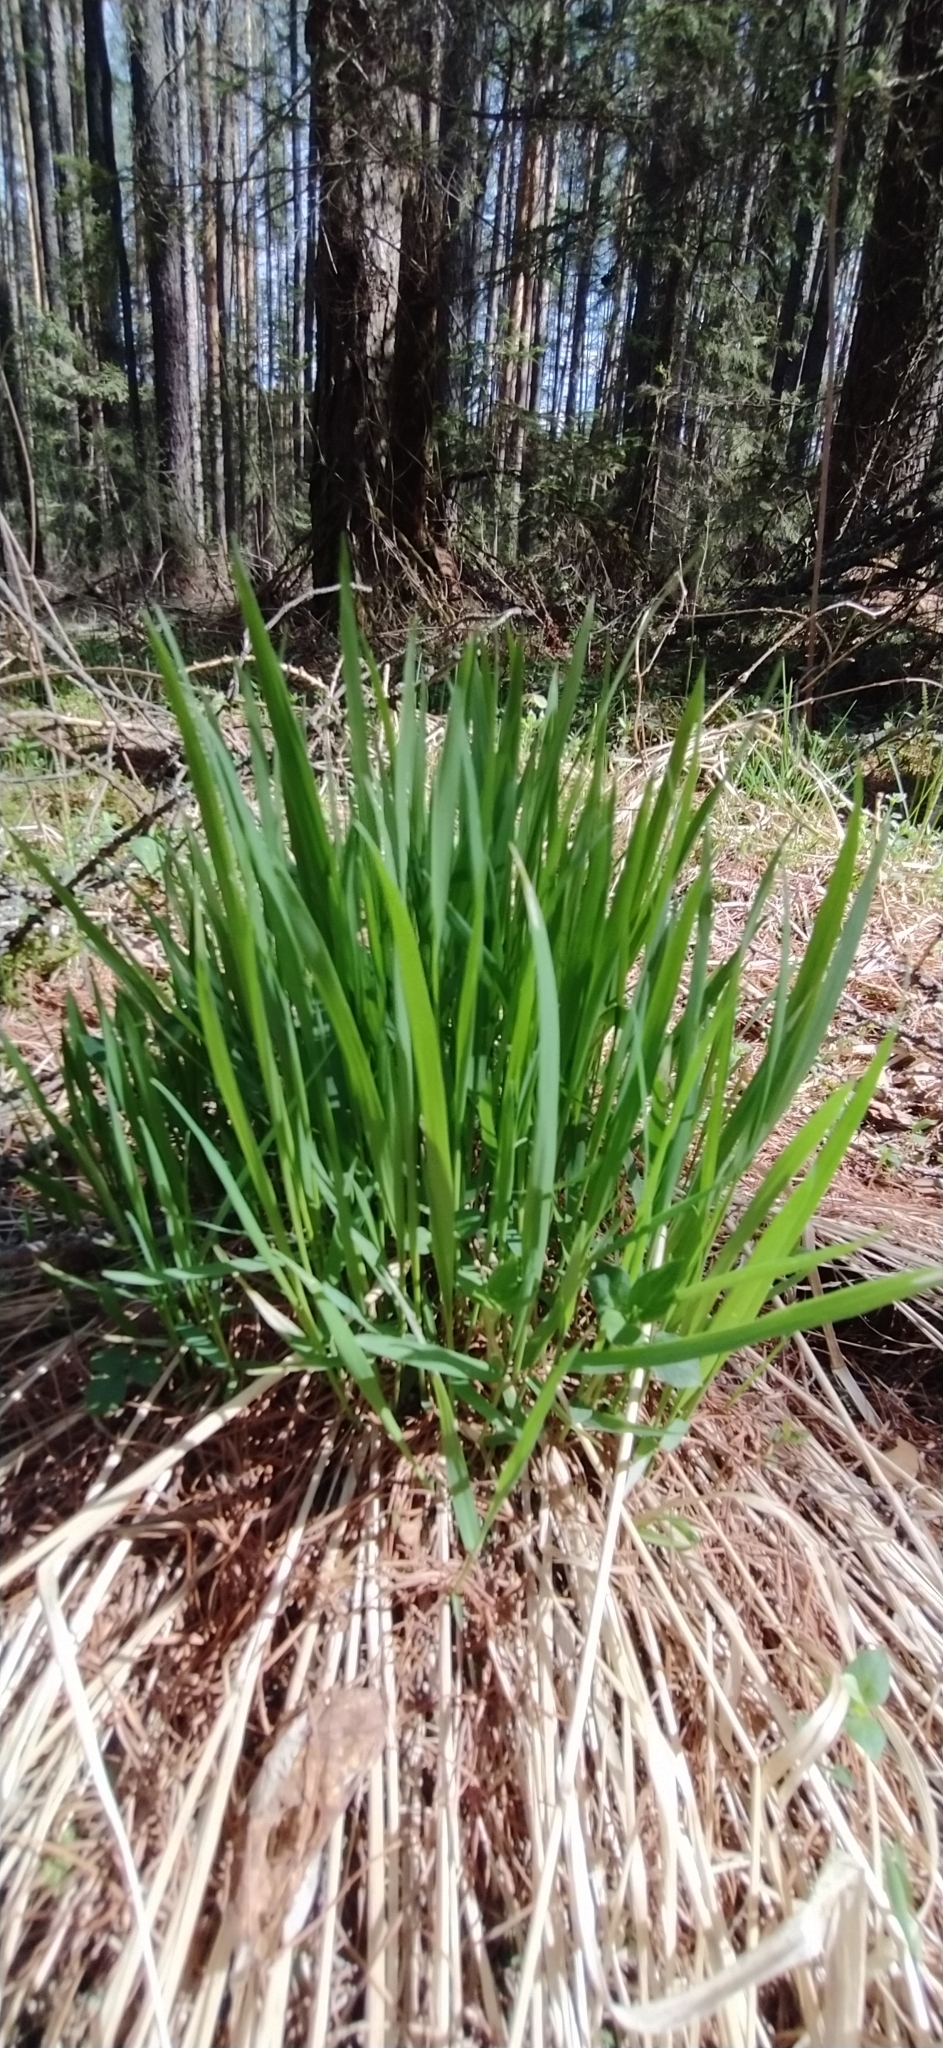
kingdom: Plantae
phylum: Tracheophyta
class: Liliopsida
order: Poales
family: Poaceae
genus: Calamagrostis
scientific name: Calamagrostis arundinacea
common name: Metskastik
